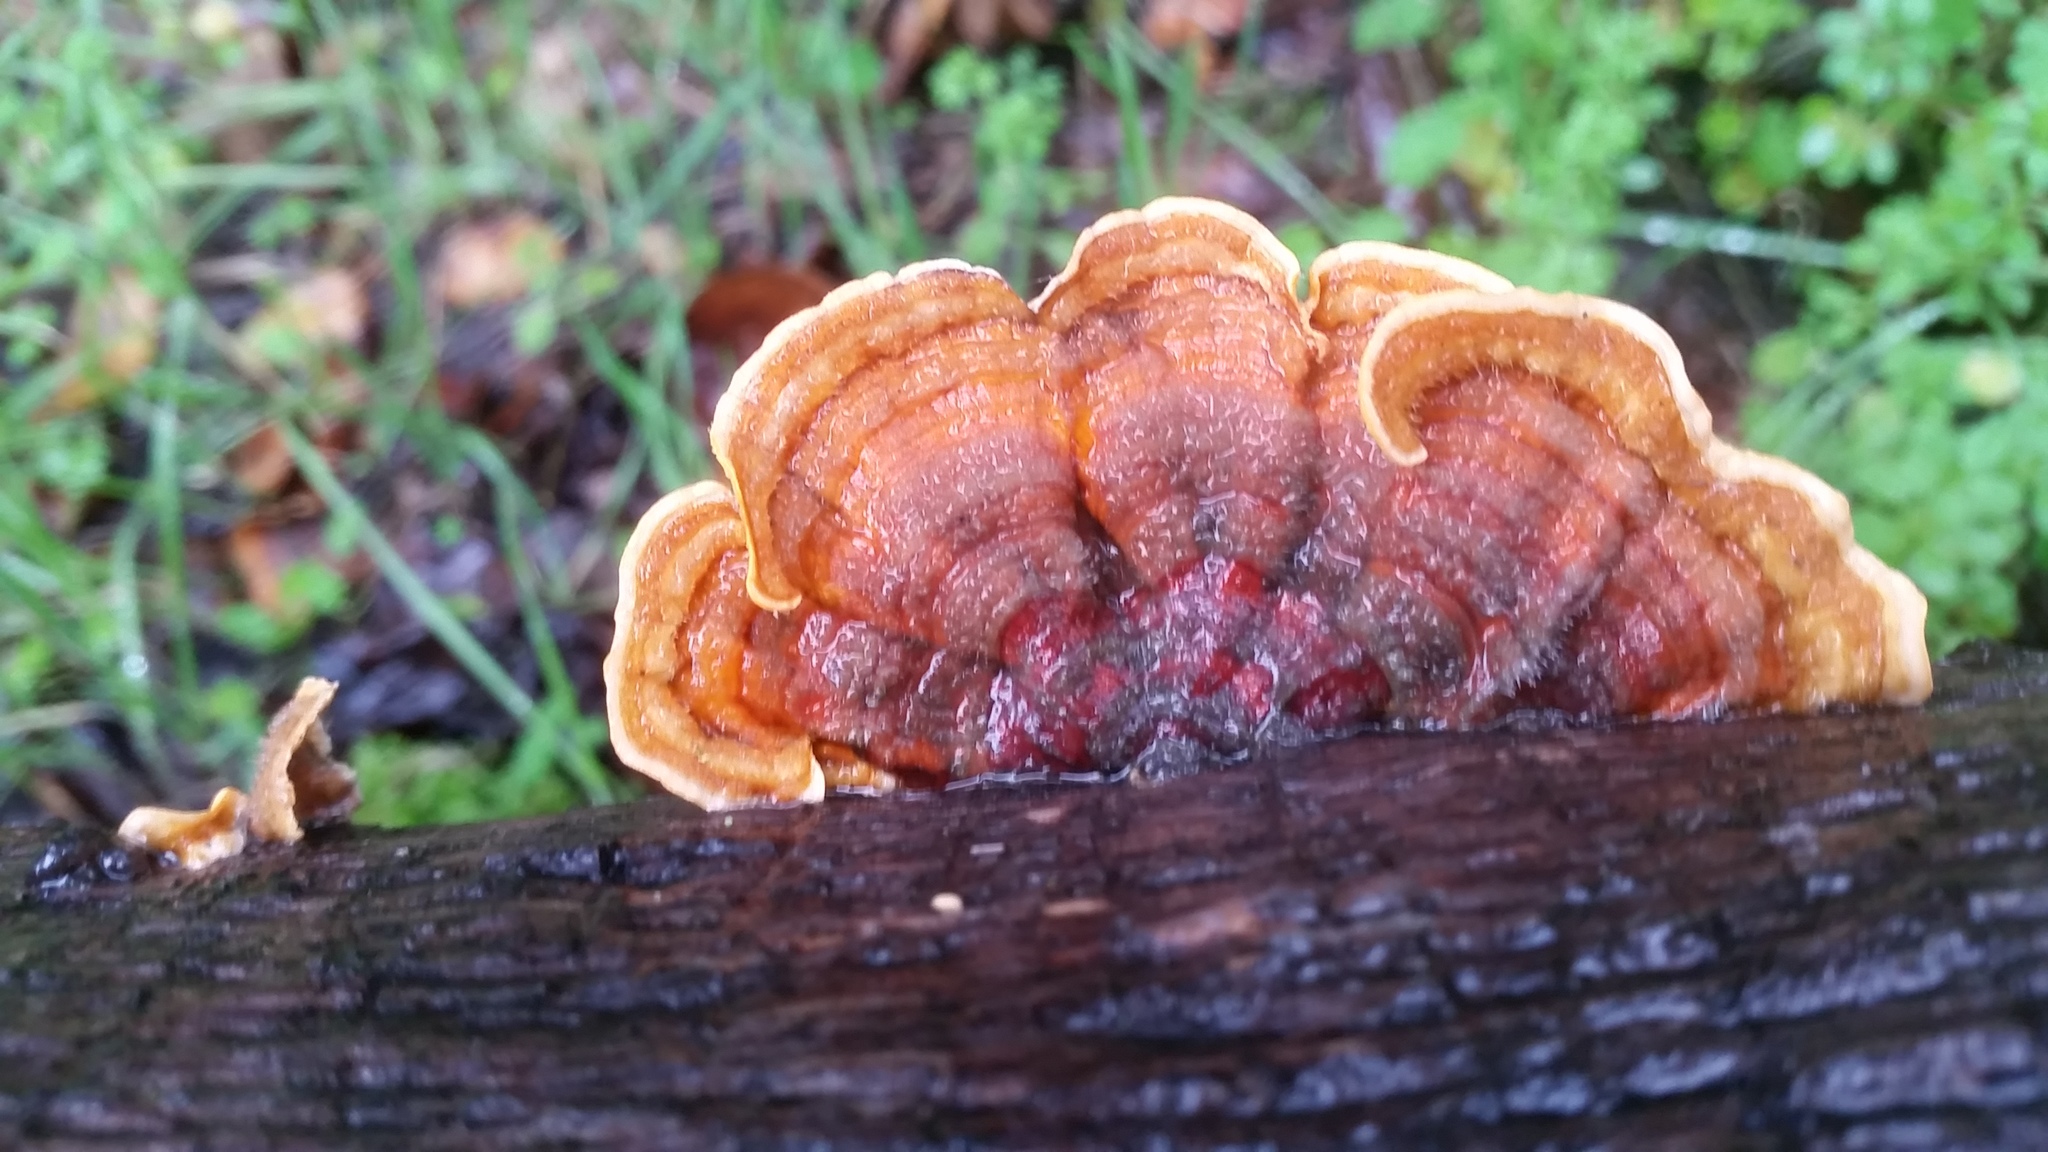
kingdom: Fungi
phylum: Basidiomycota
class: Agaricomycetes
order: Russulales
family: Stereaceae
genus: Stereum
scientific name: Stereum hirsutum
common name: Hairy curtain crust
